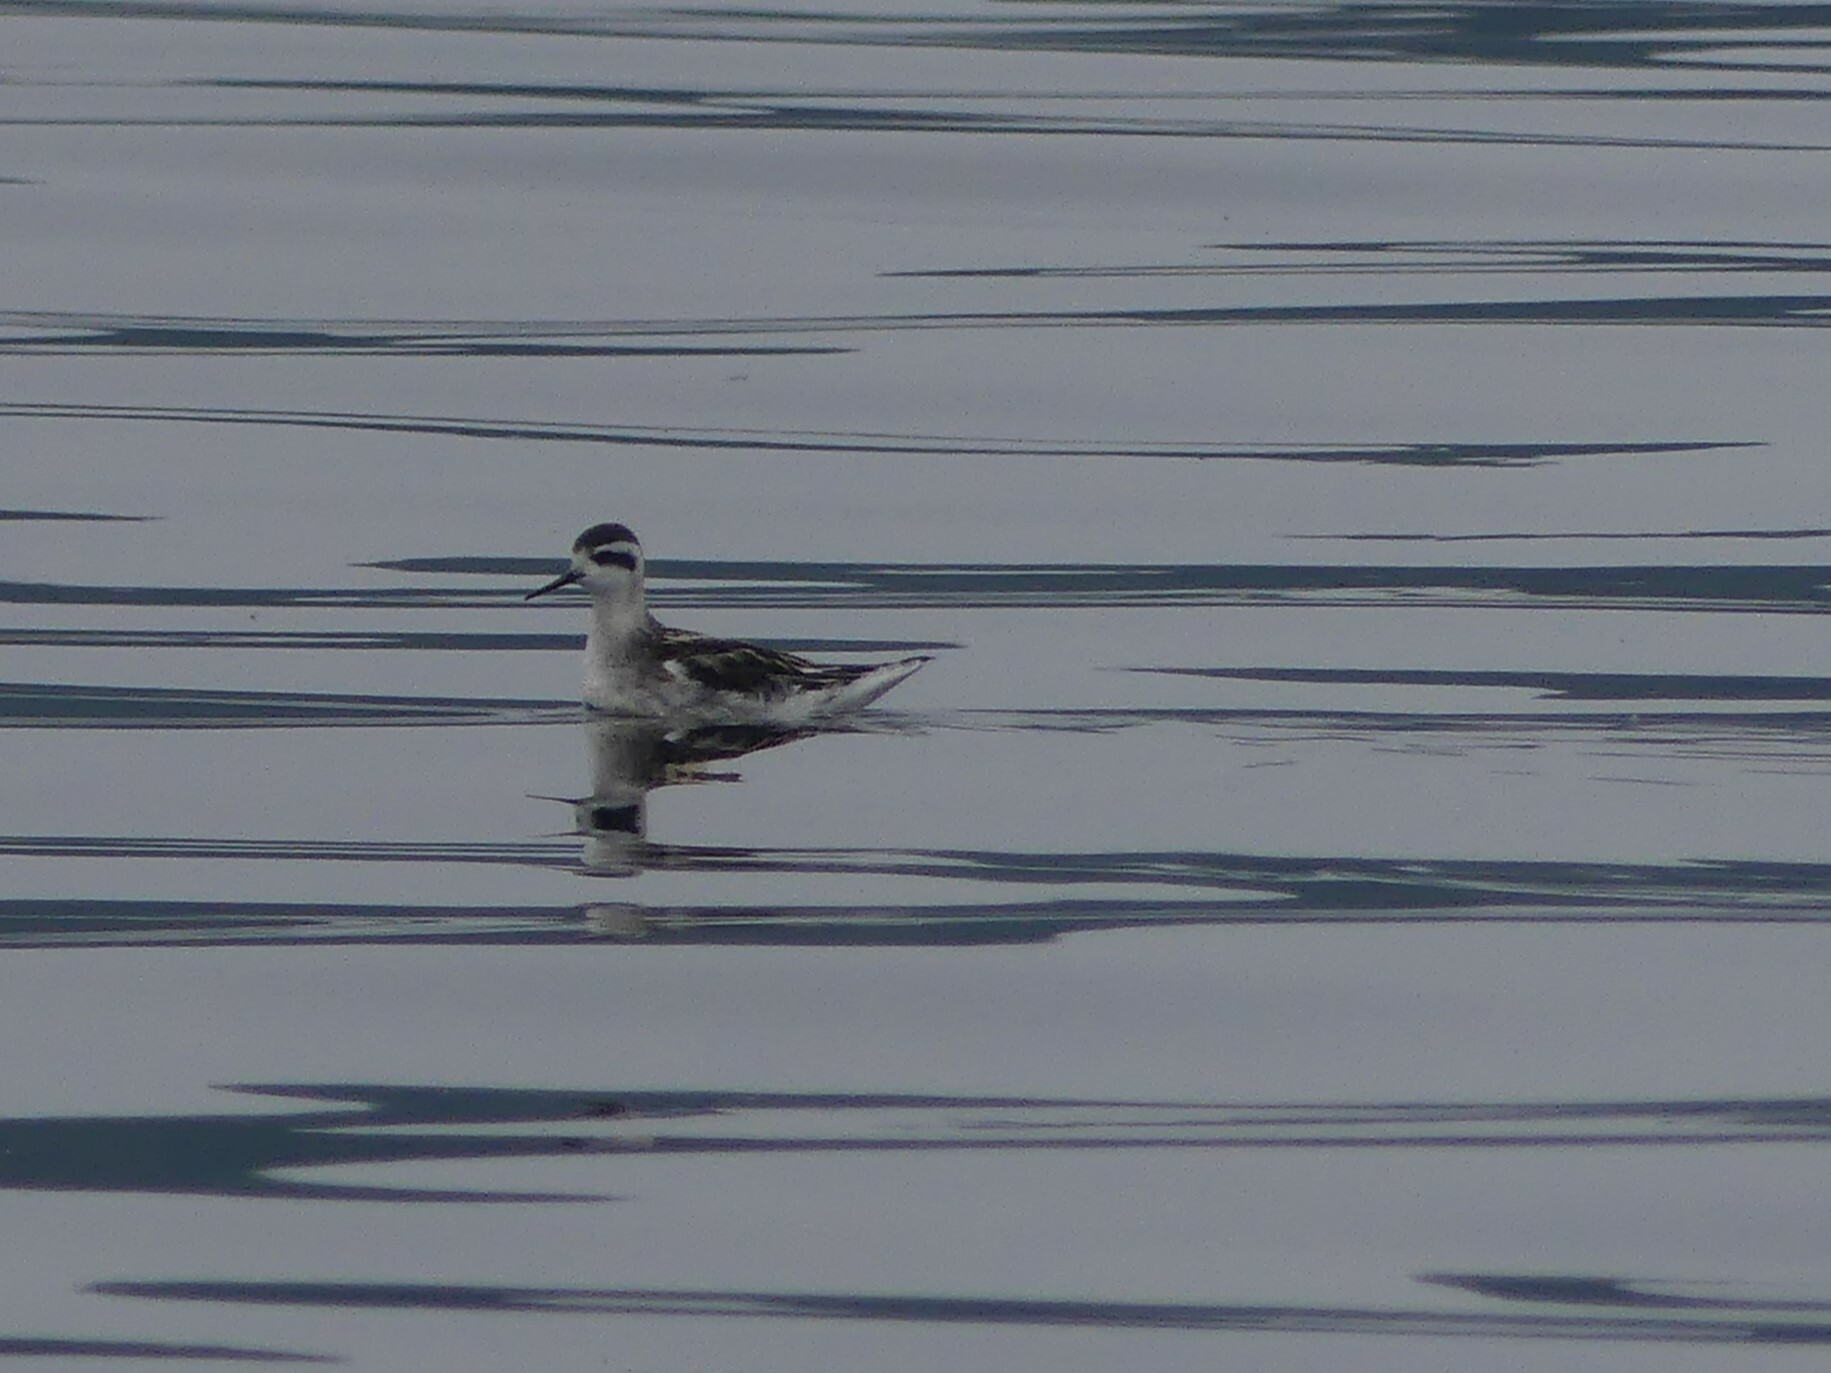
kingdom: Animalia
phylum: Chordata
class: Aves
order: Charadriiformes
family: Scolopacidae
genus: Phalaropus
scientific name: Phalaropus lobatus
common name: Red-necked phalarope
